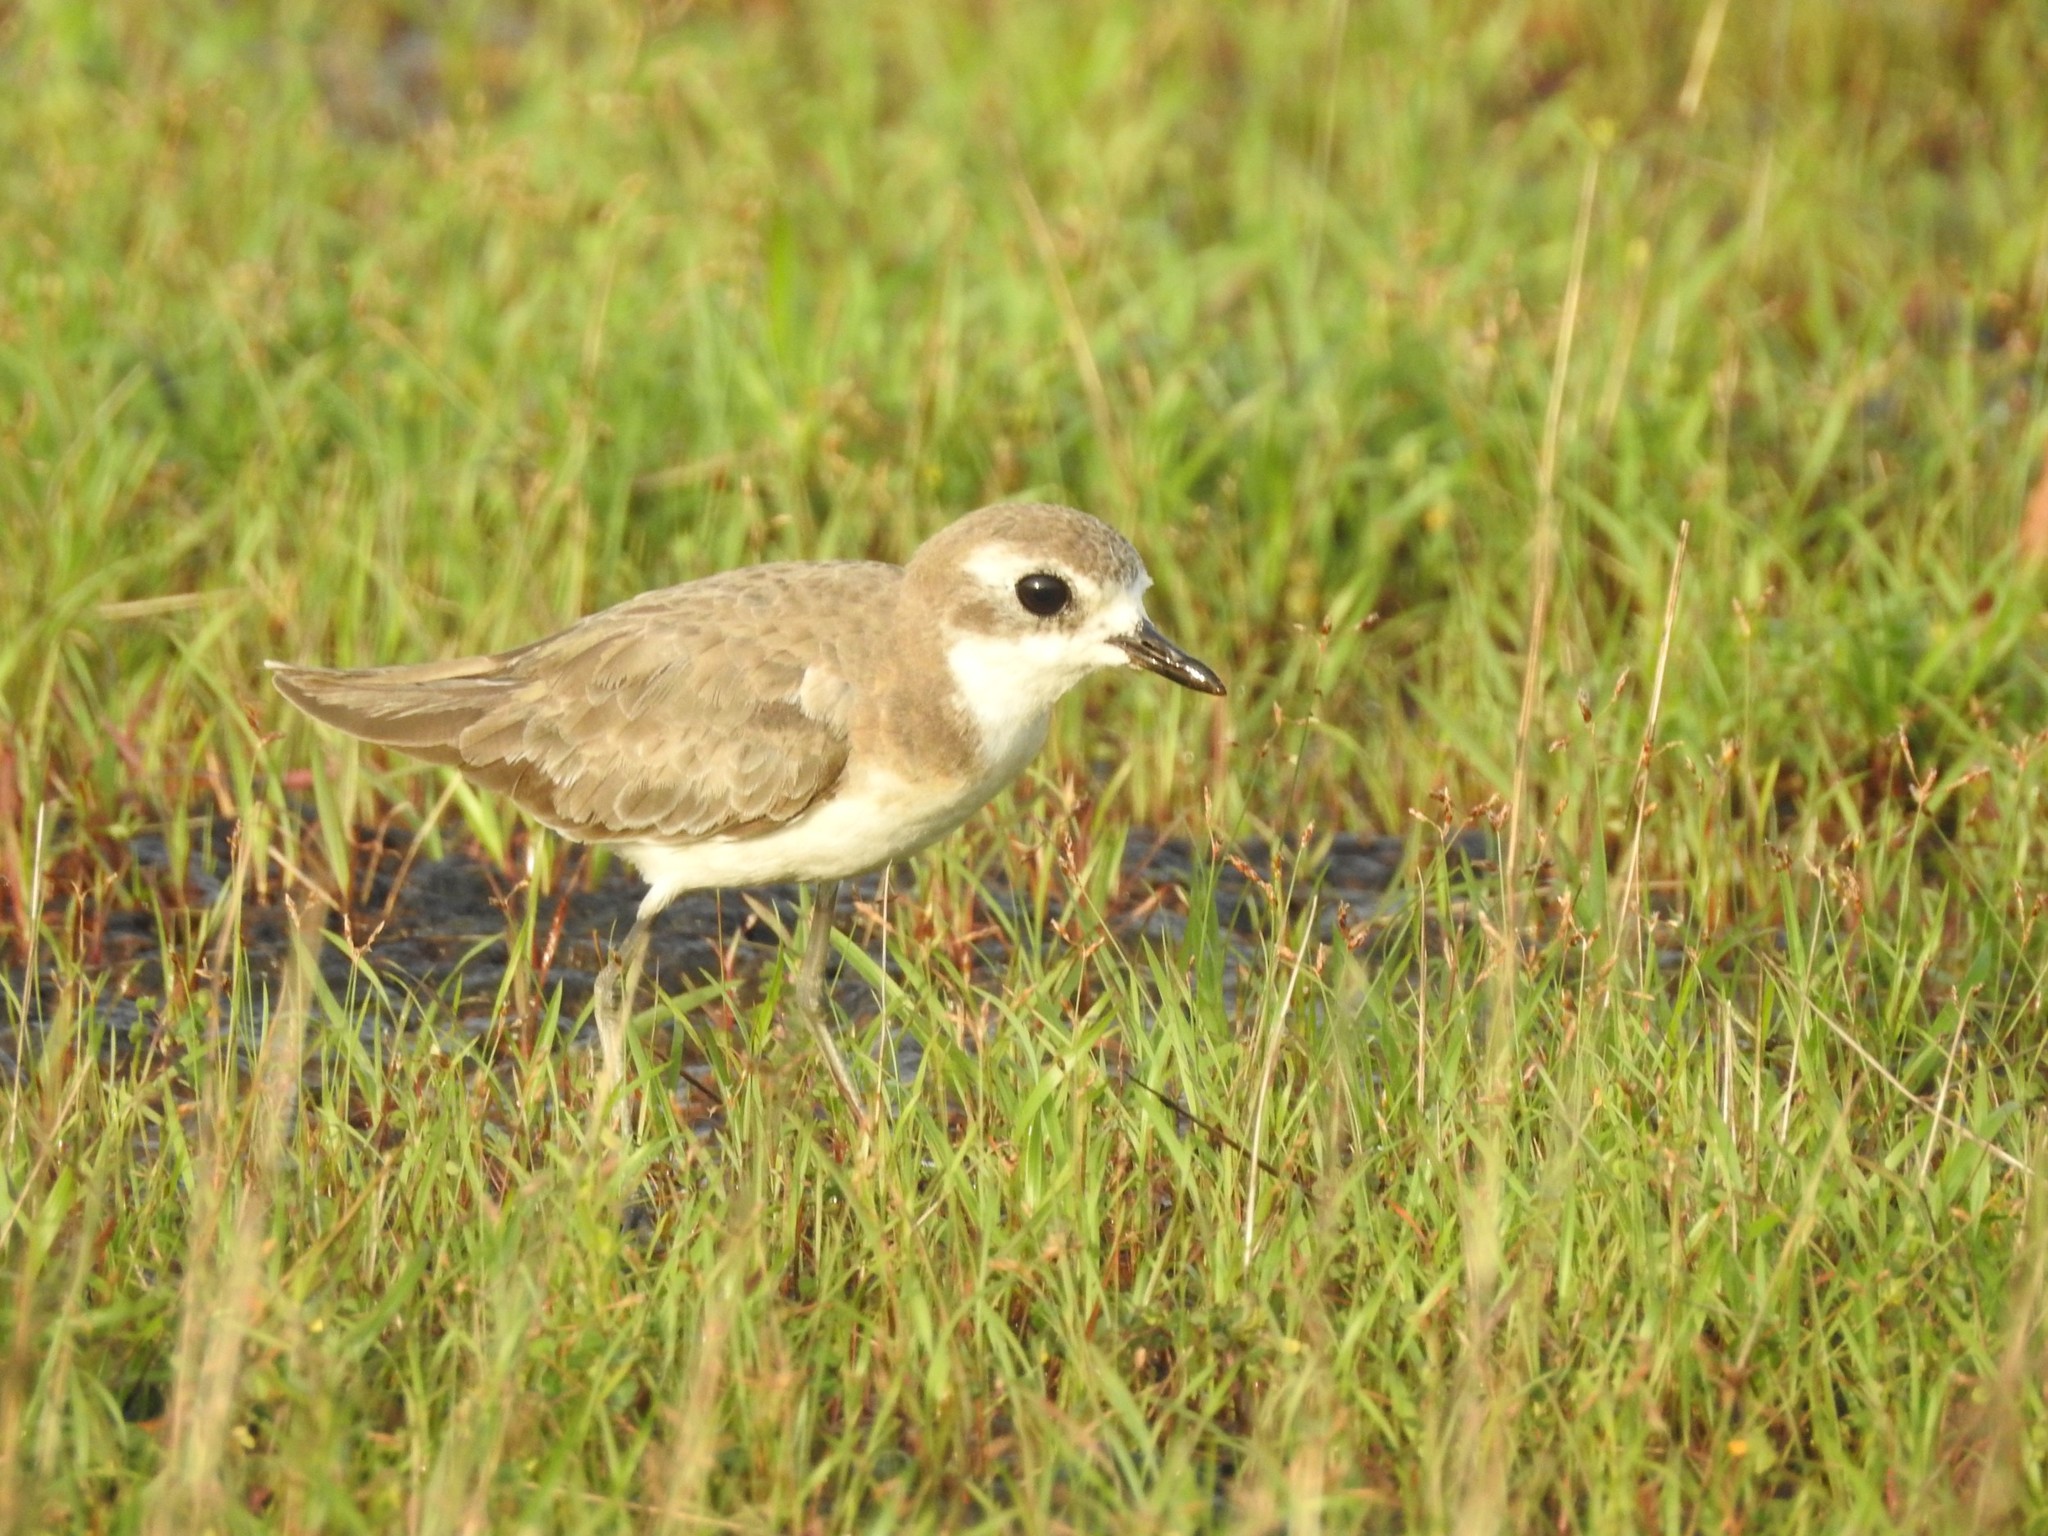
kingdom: Animalia
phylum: Chordata
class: Aves
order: Charadriiformes
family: Charadriidae
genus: Anarhynchus
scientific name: Anarhynchus
